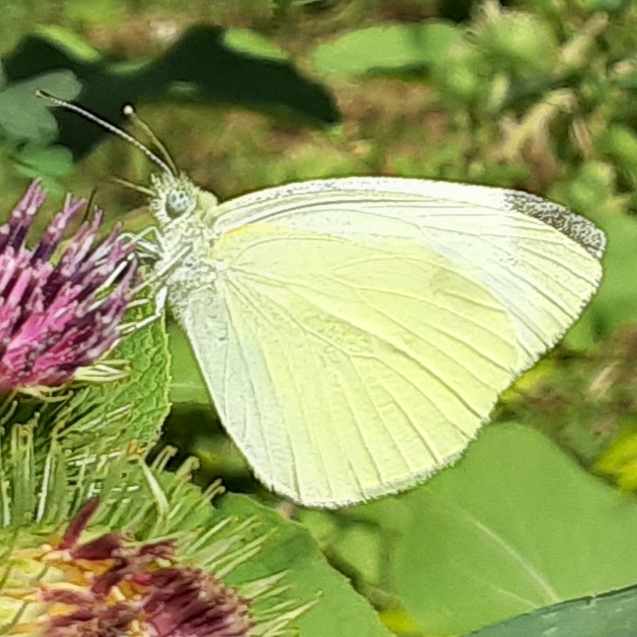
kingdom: Animalia
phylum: Arthropoda
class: Insecta
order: Lepidoptera
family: Pieridae
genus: Pieris
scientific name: Pieris rapae
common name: Small white
